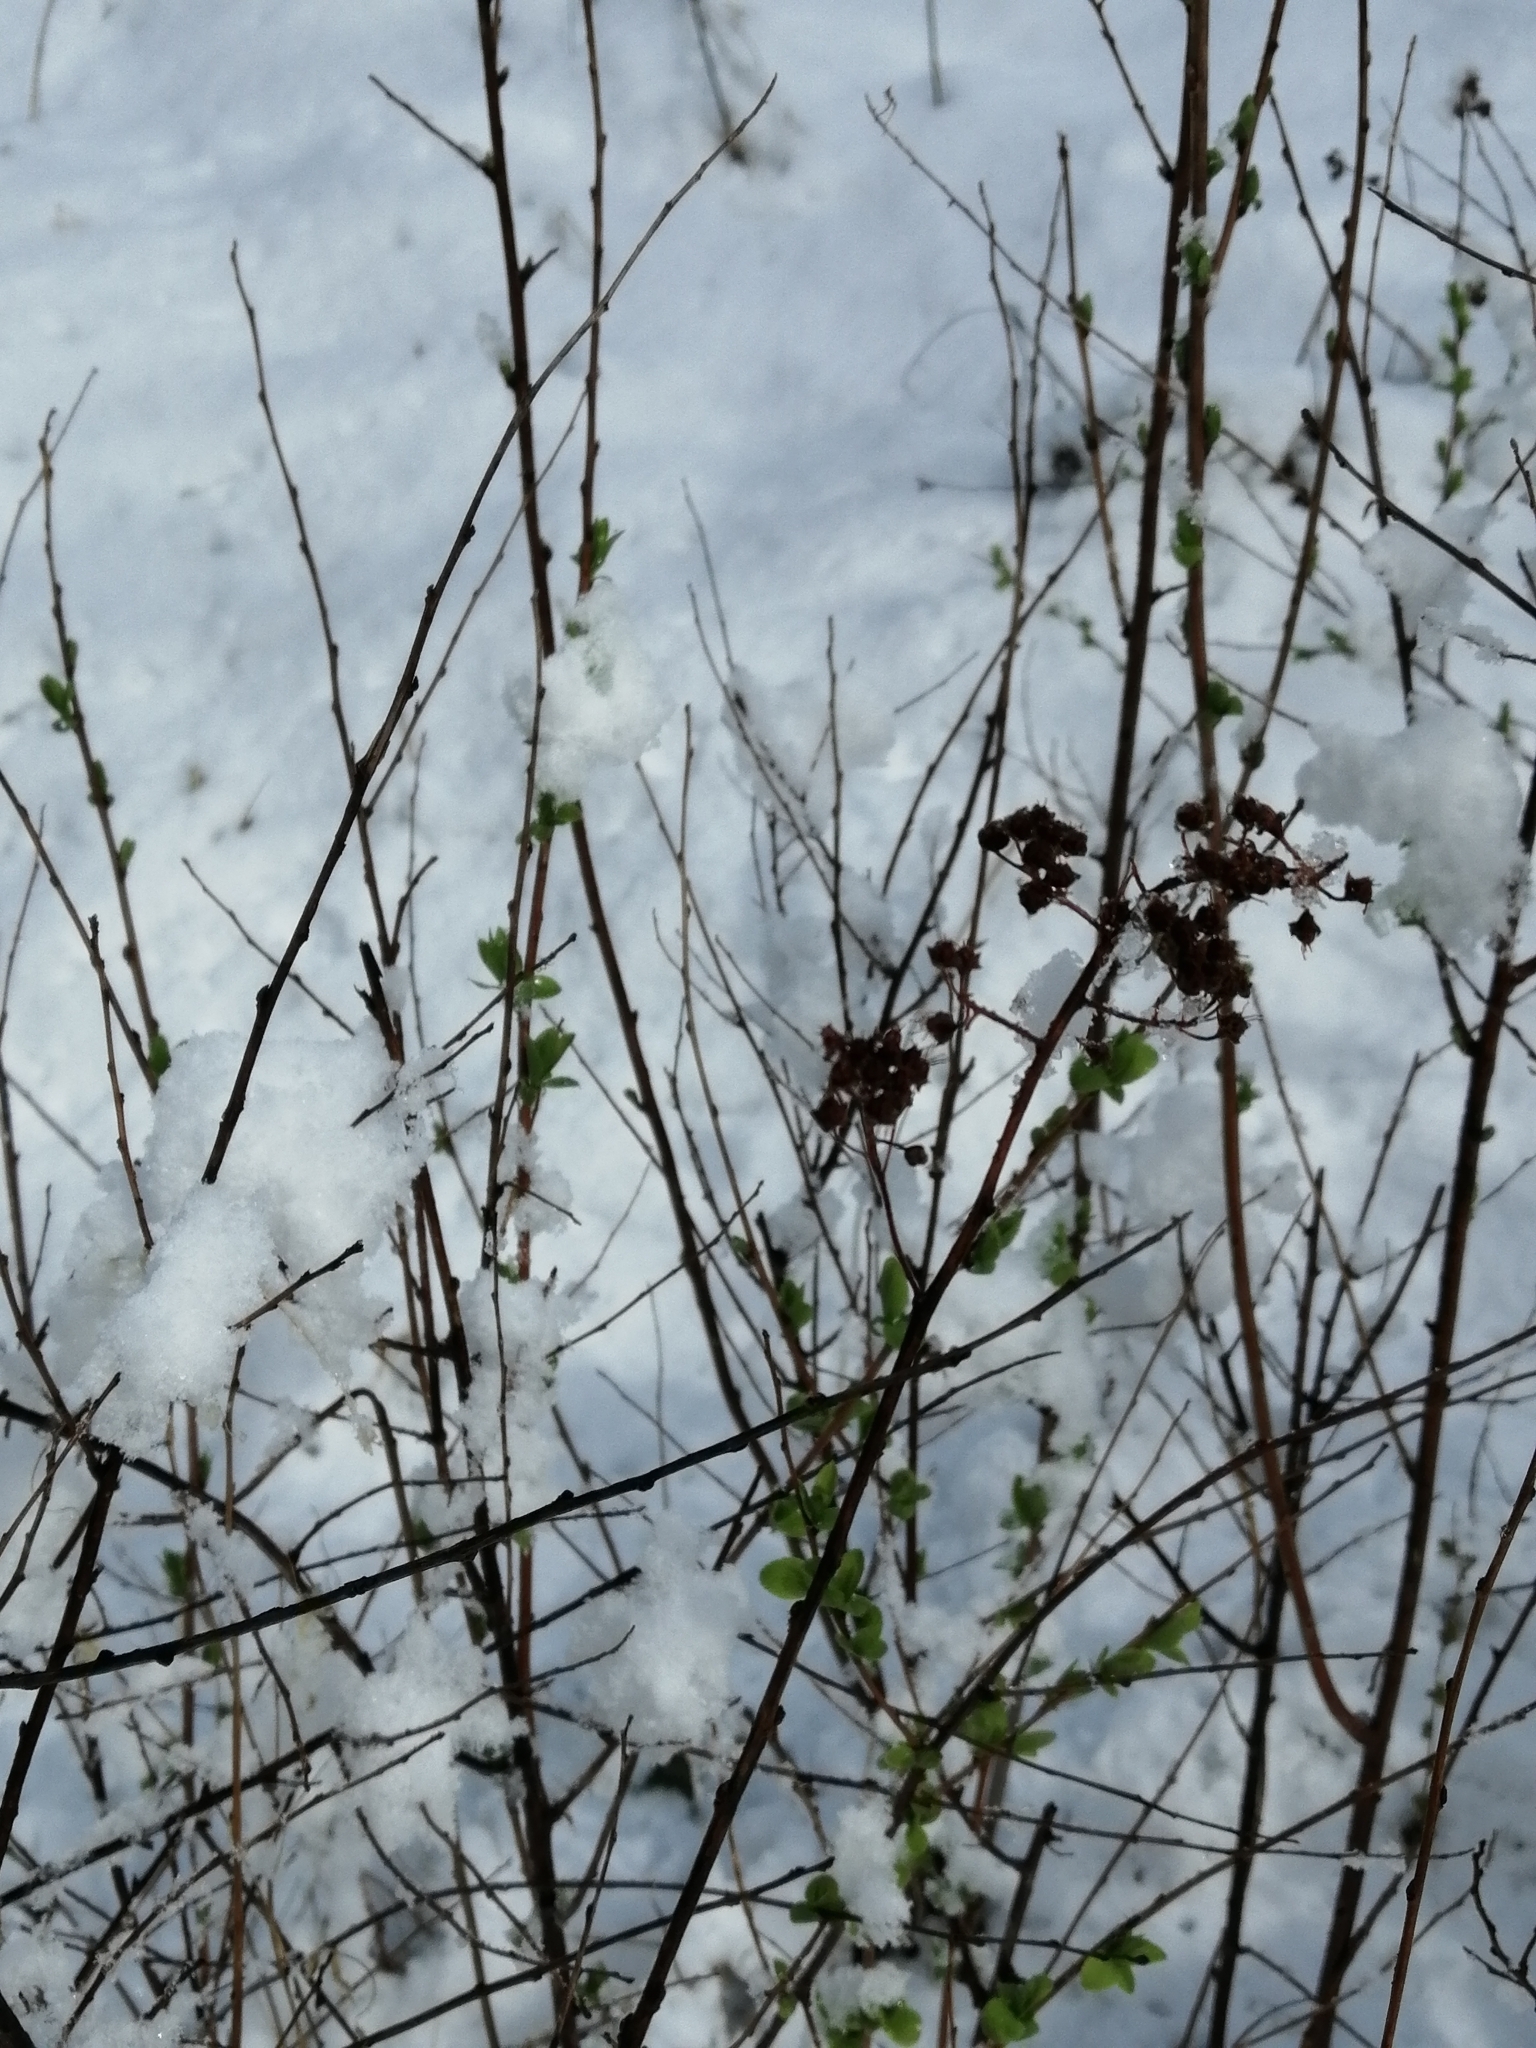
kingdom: Plantae
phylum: Tracheophyta
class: Magnoliopsida
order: Rosales
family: Rosaceae
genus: Spiraea
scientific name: Spiraea salicifolia
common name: Bridewort
